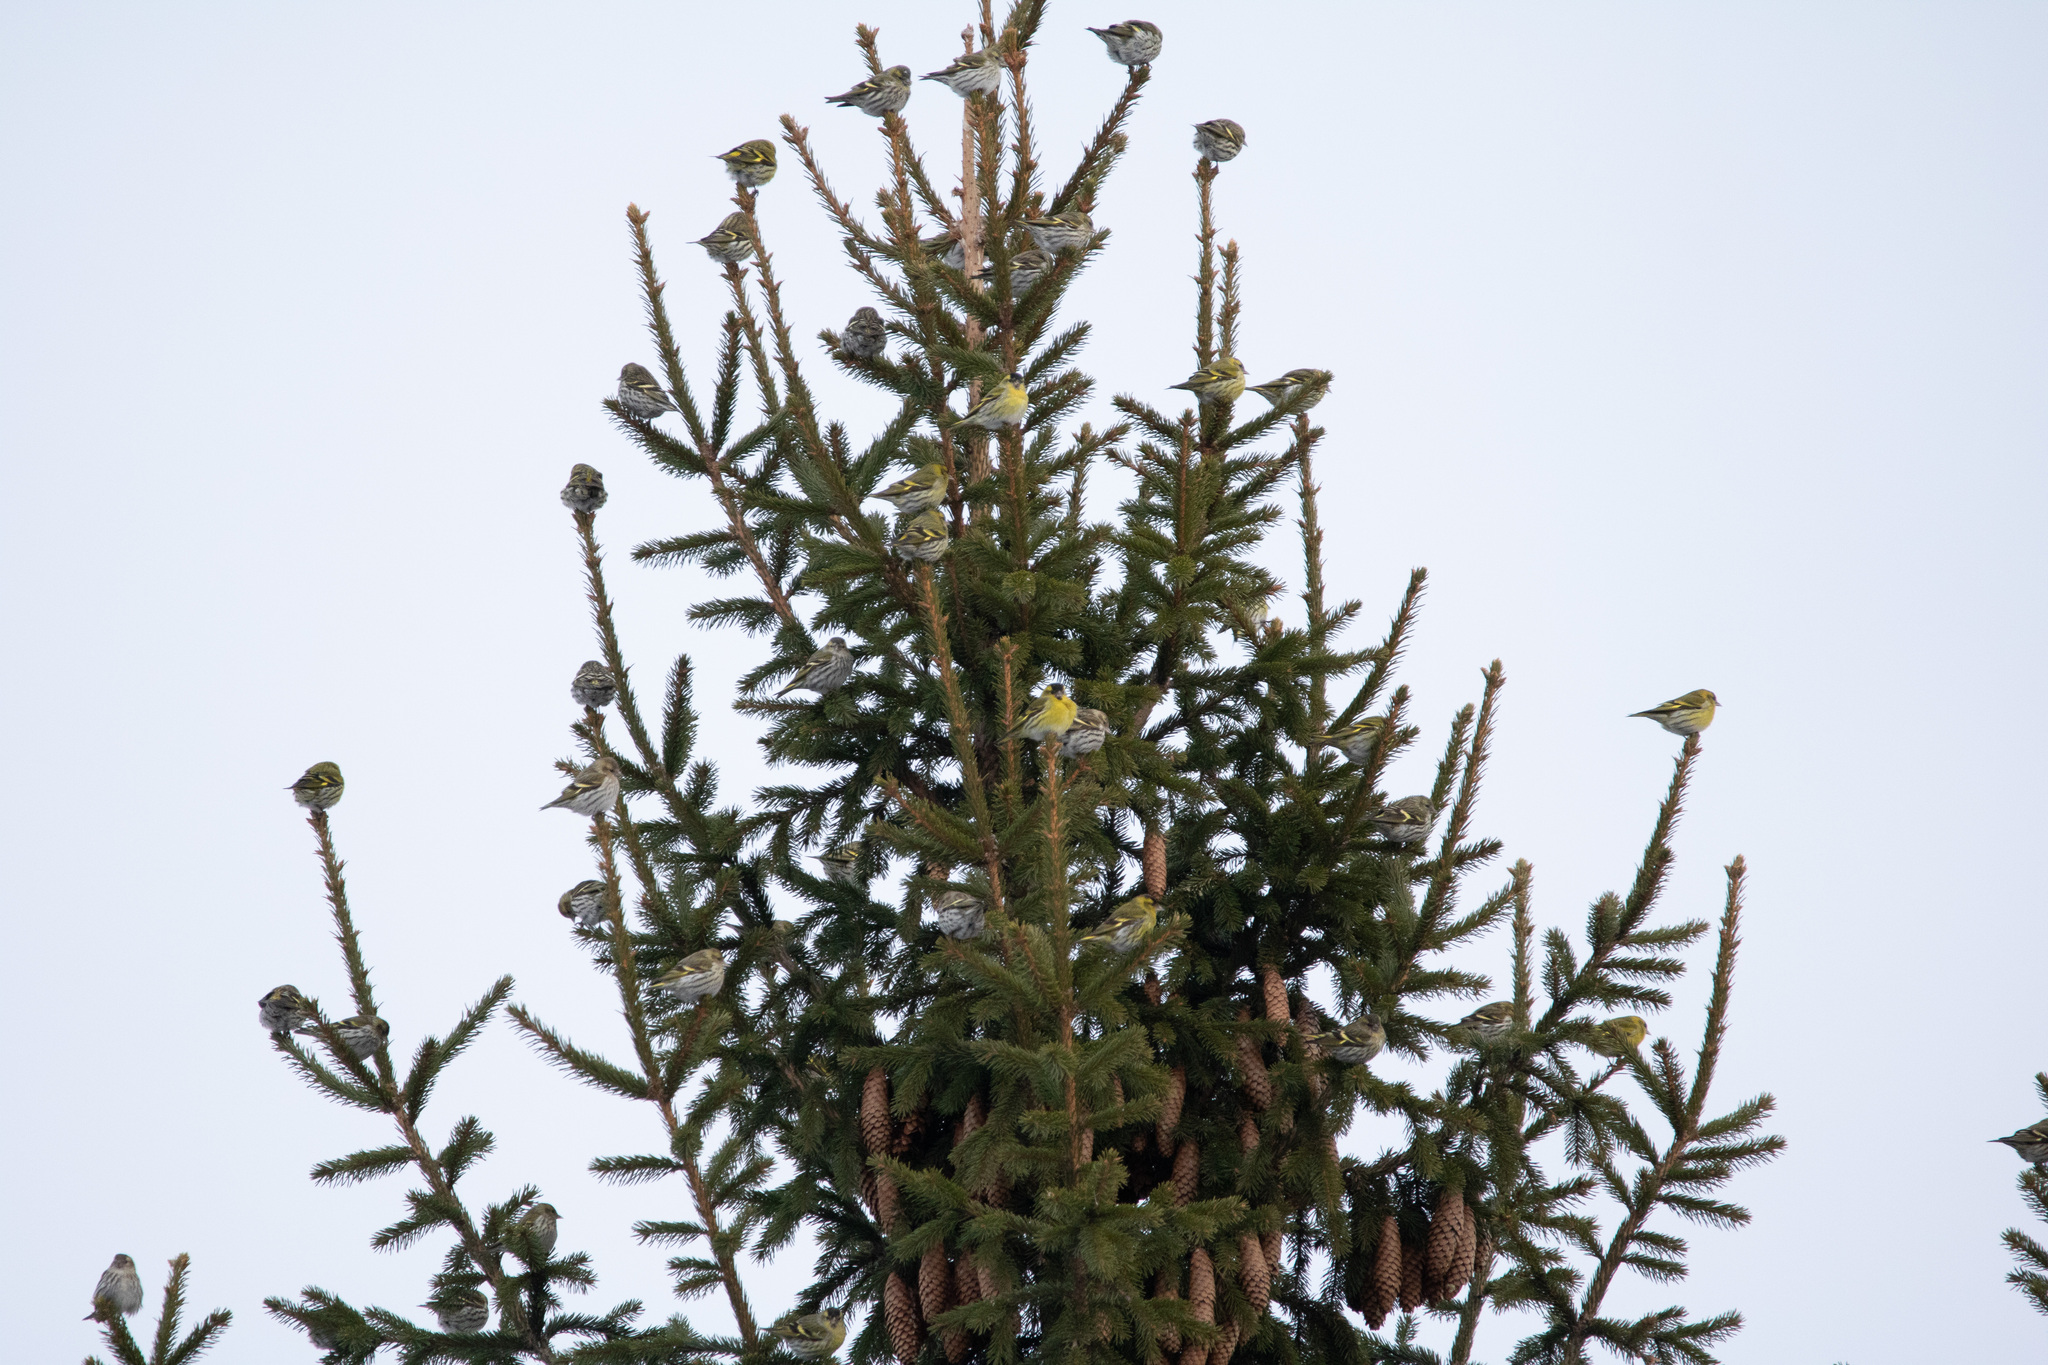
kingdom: Animalia
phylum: Chordata
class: Aves
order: Passeriformes
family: Fringillidae
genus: Spinus
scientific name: Spinus spinus
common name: Eurasian siskin
